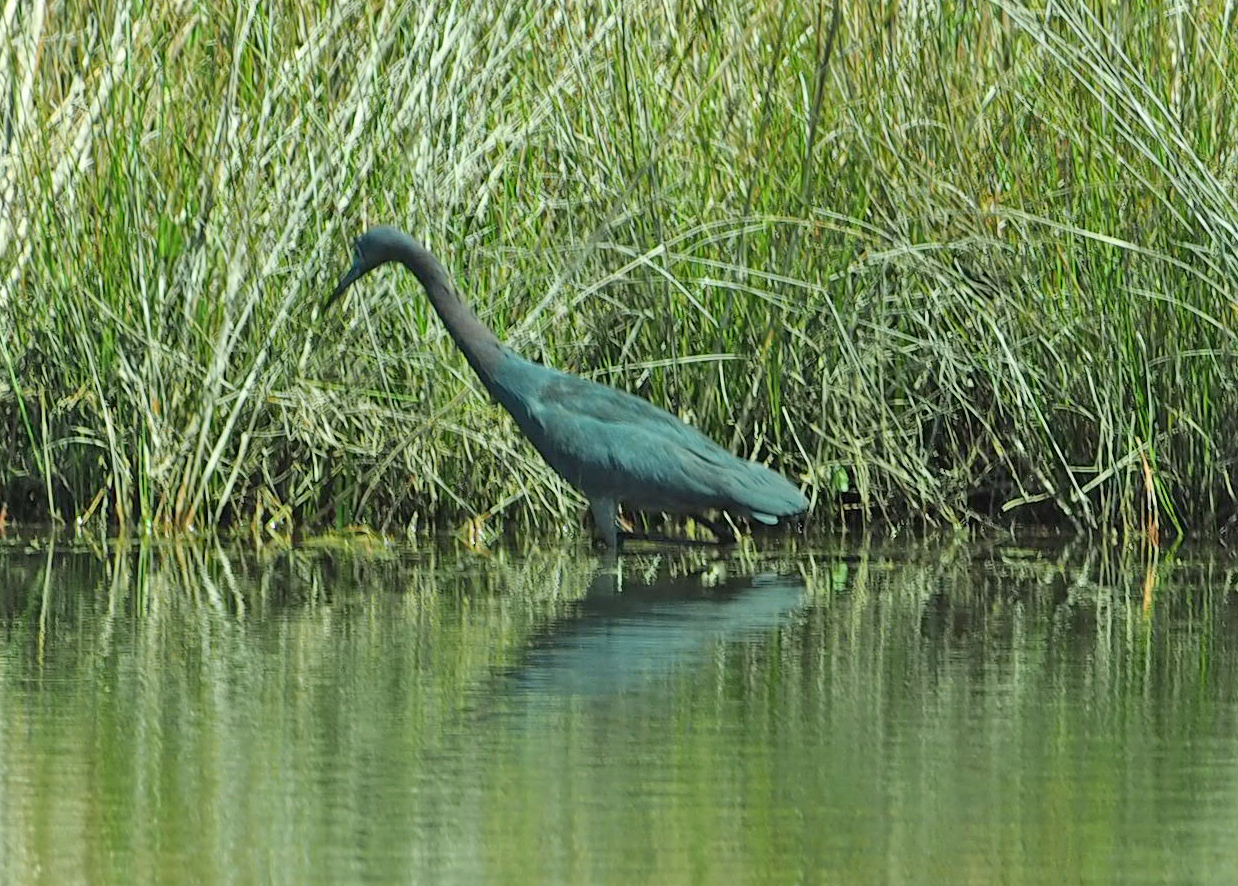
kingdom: Animalia
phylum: Chordata
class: Aves
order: Pelecaniformes
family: Ardeidae
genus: Egretta
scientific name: Egretta caerulea
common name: Little blue heron
